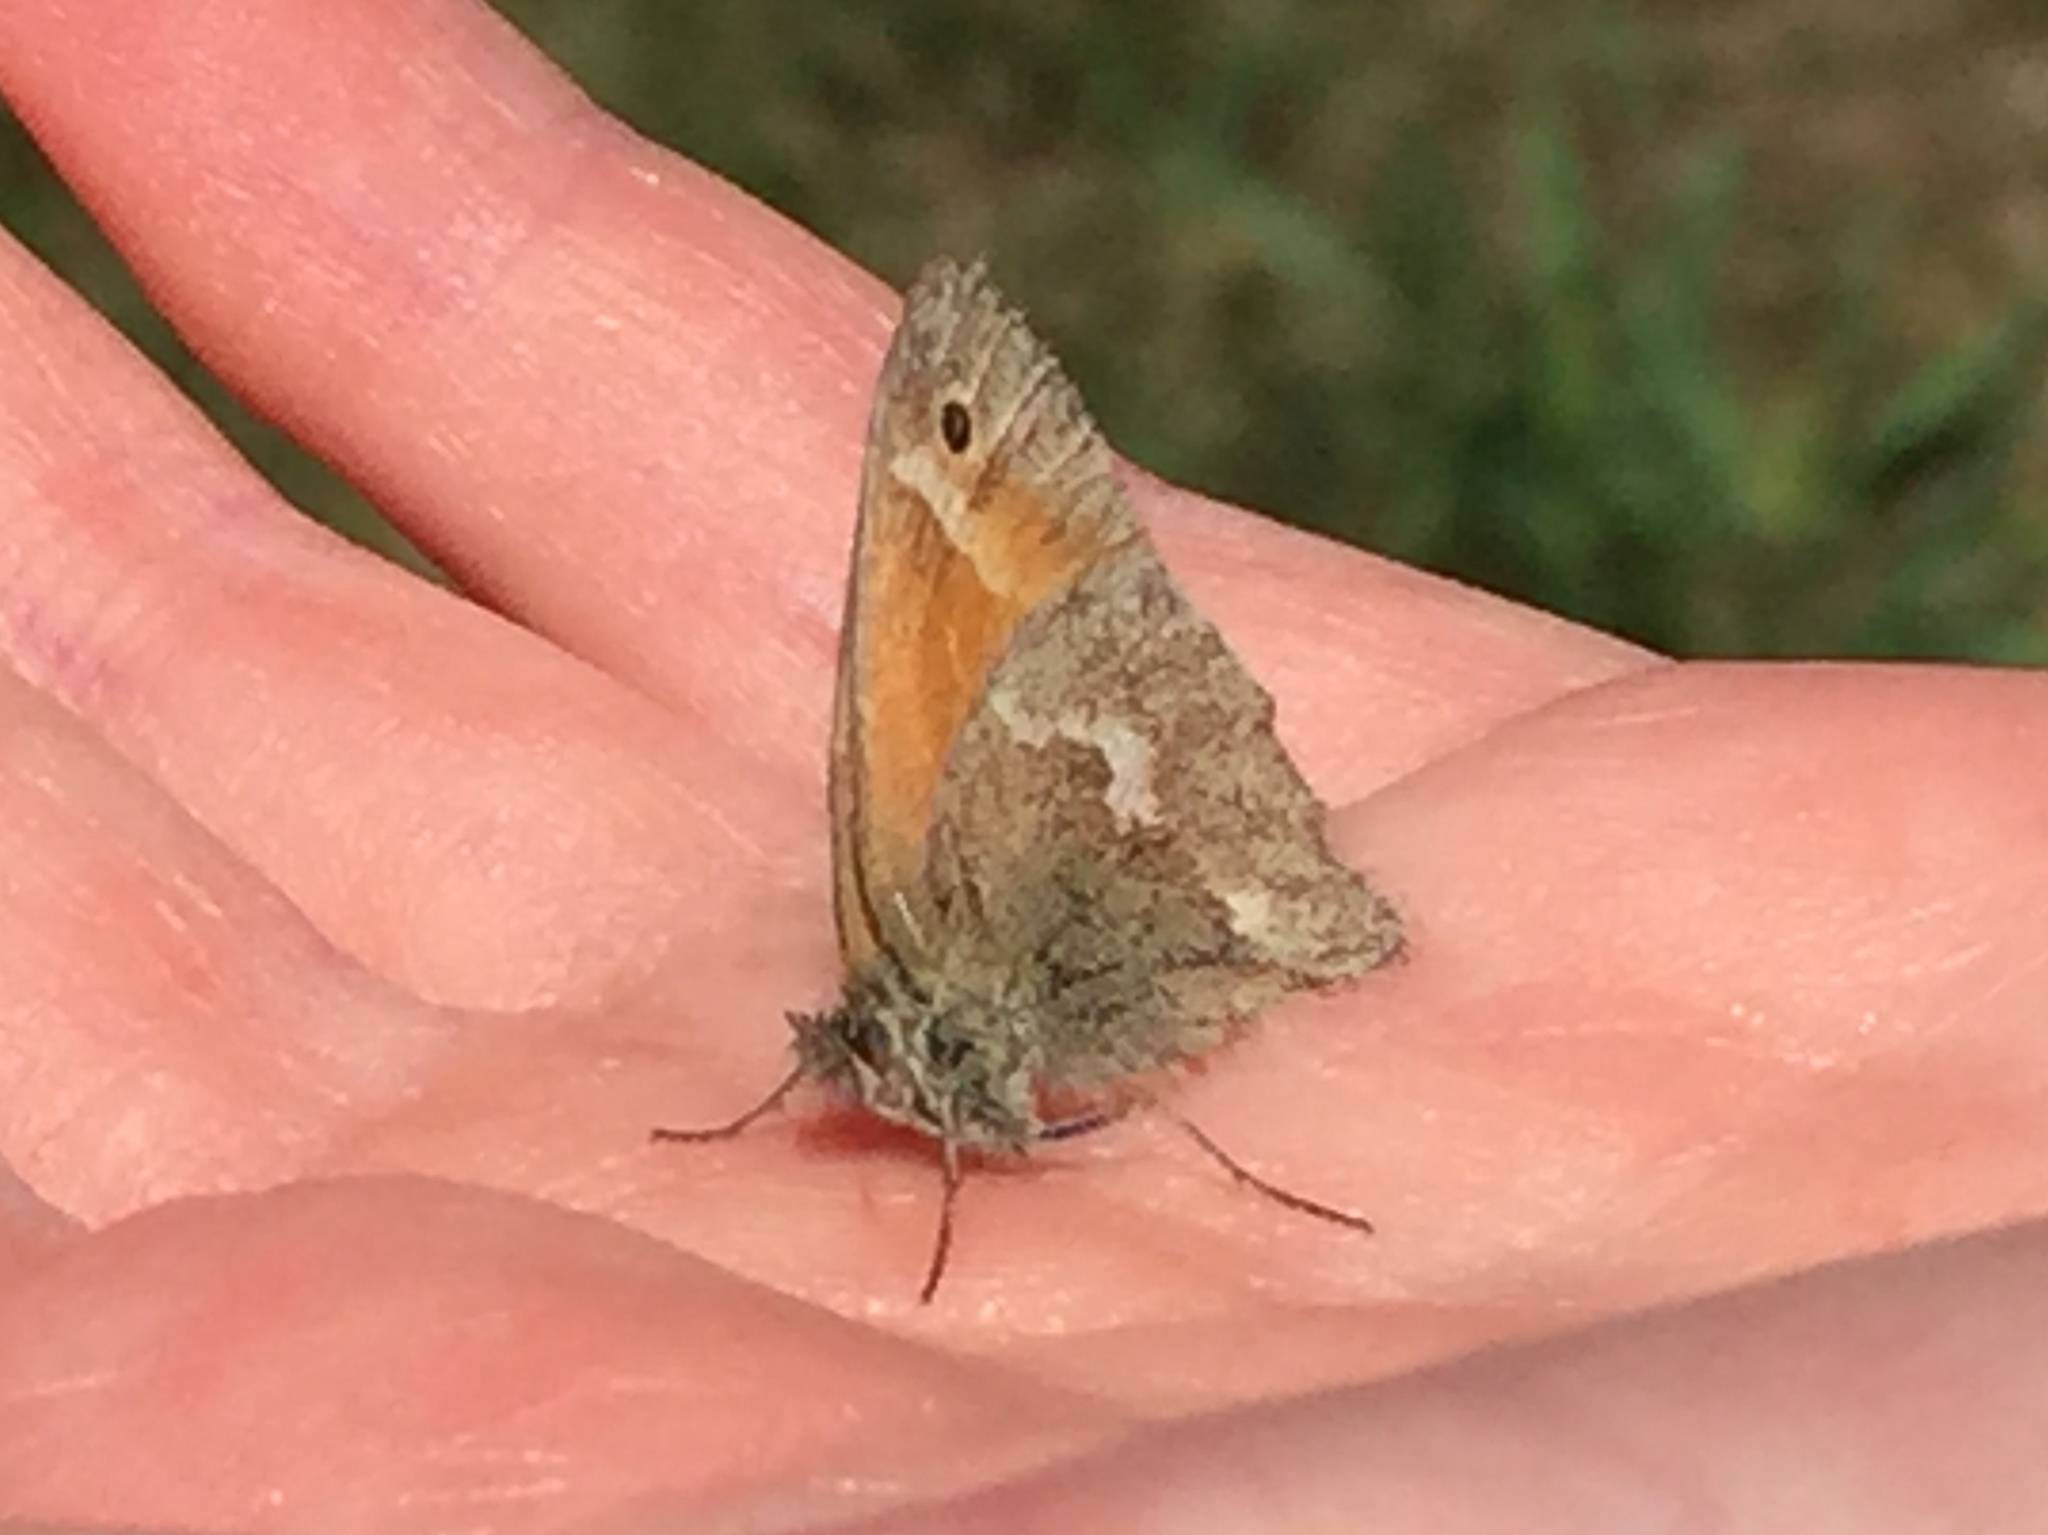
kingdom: Animalia
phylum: Arthropoda
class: Insecta
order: Lepidoptera
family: Nymphalidae
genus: Coenonympha
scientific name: Coenonympha california
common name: Common ringlet
